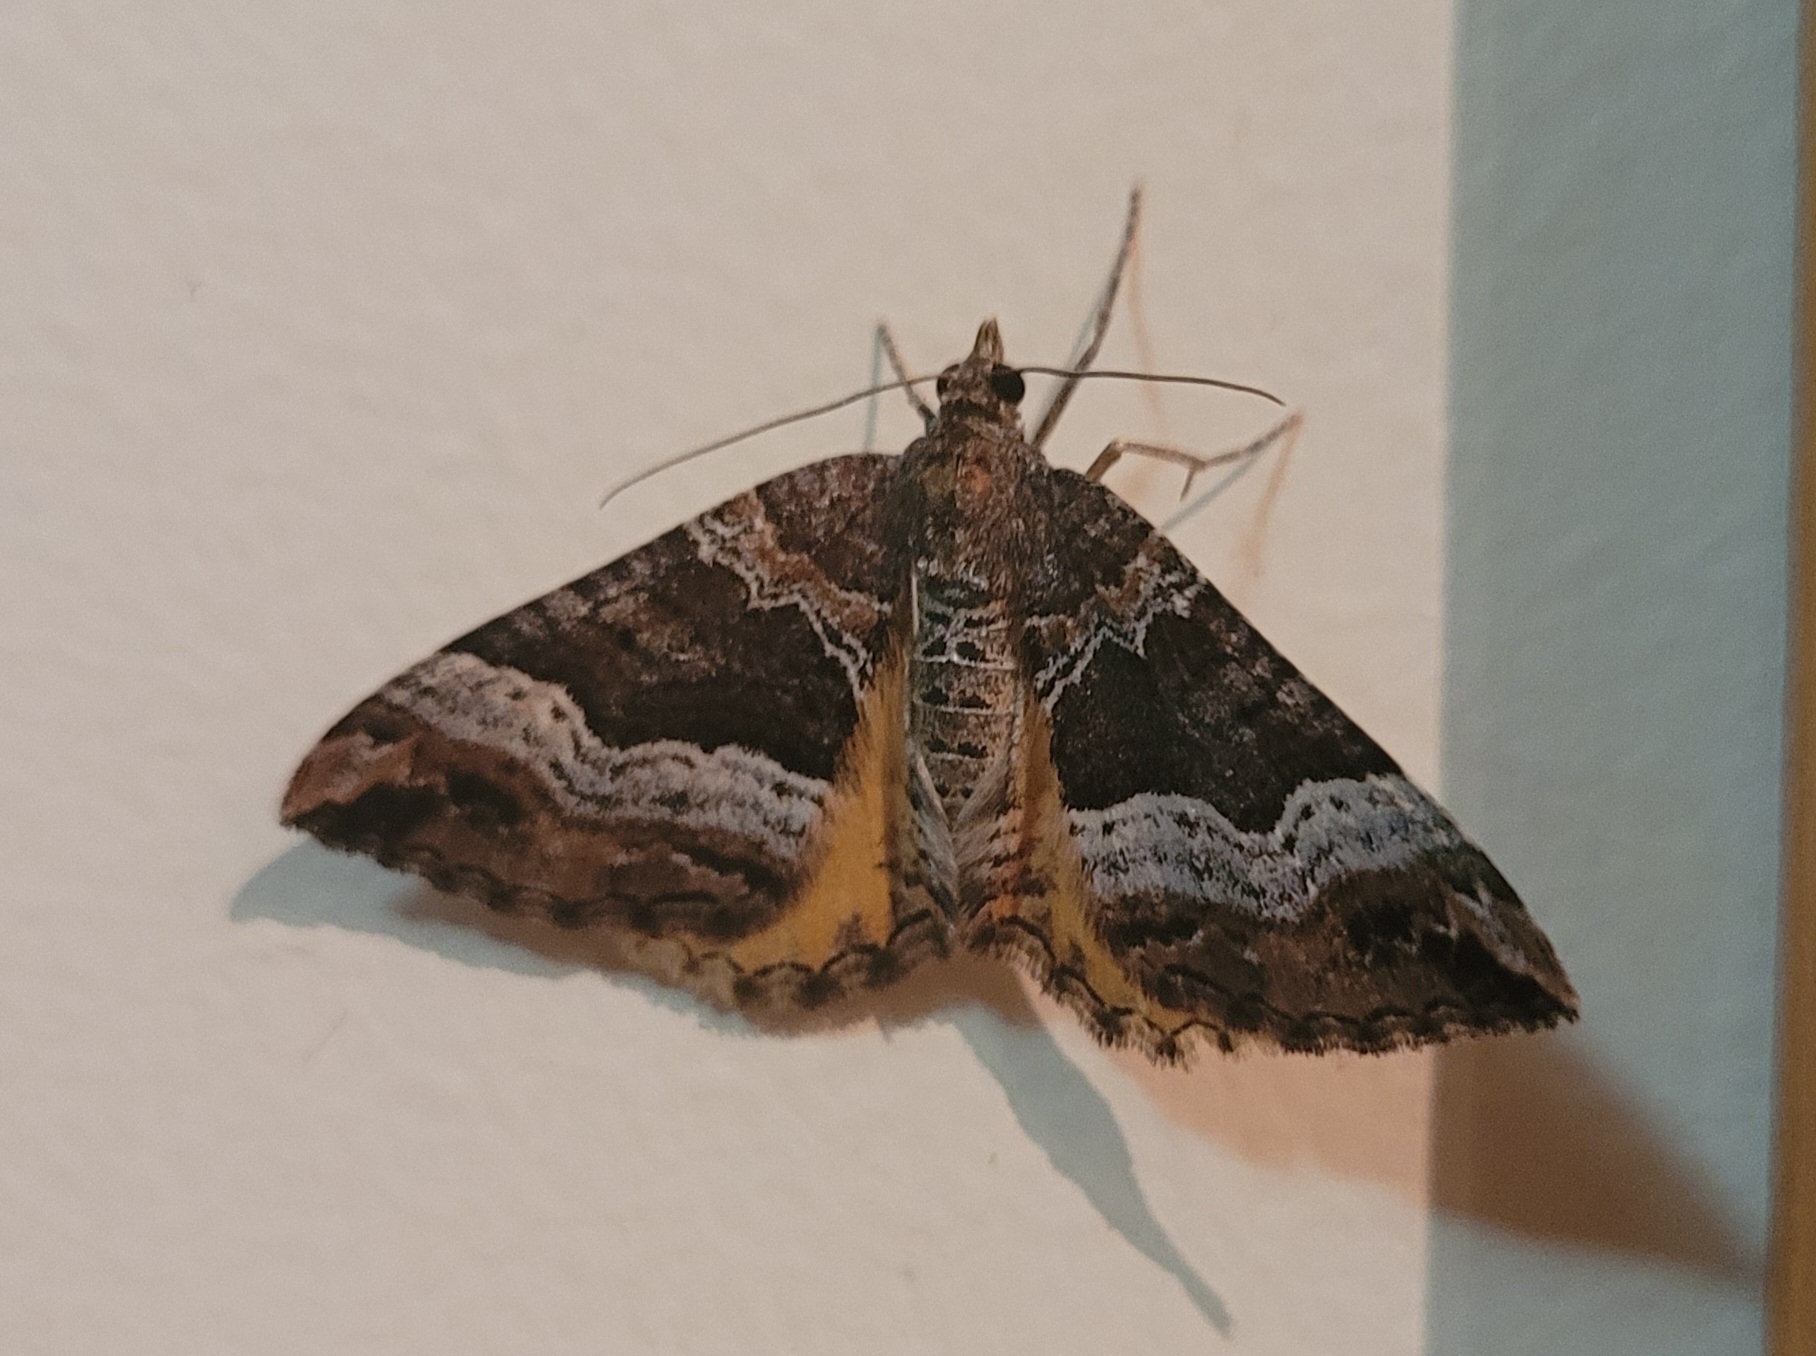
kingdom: Animalia
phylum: Arthropoda
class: Insecta
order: Lepidoptera
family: Geometridae
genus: Chrysolarentia
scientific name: Chrysolarentia lucidulata
